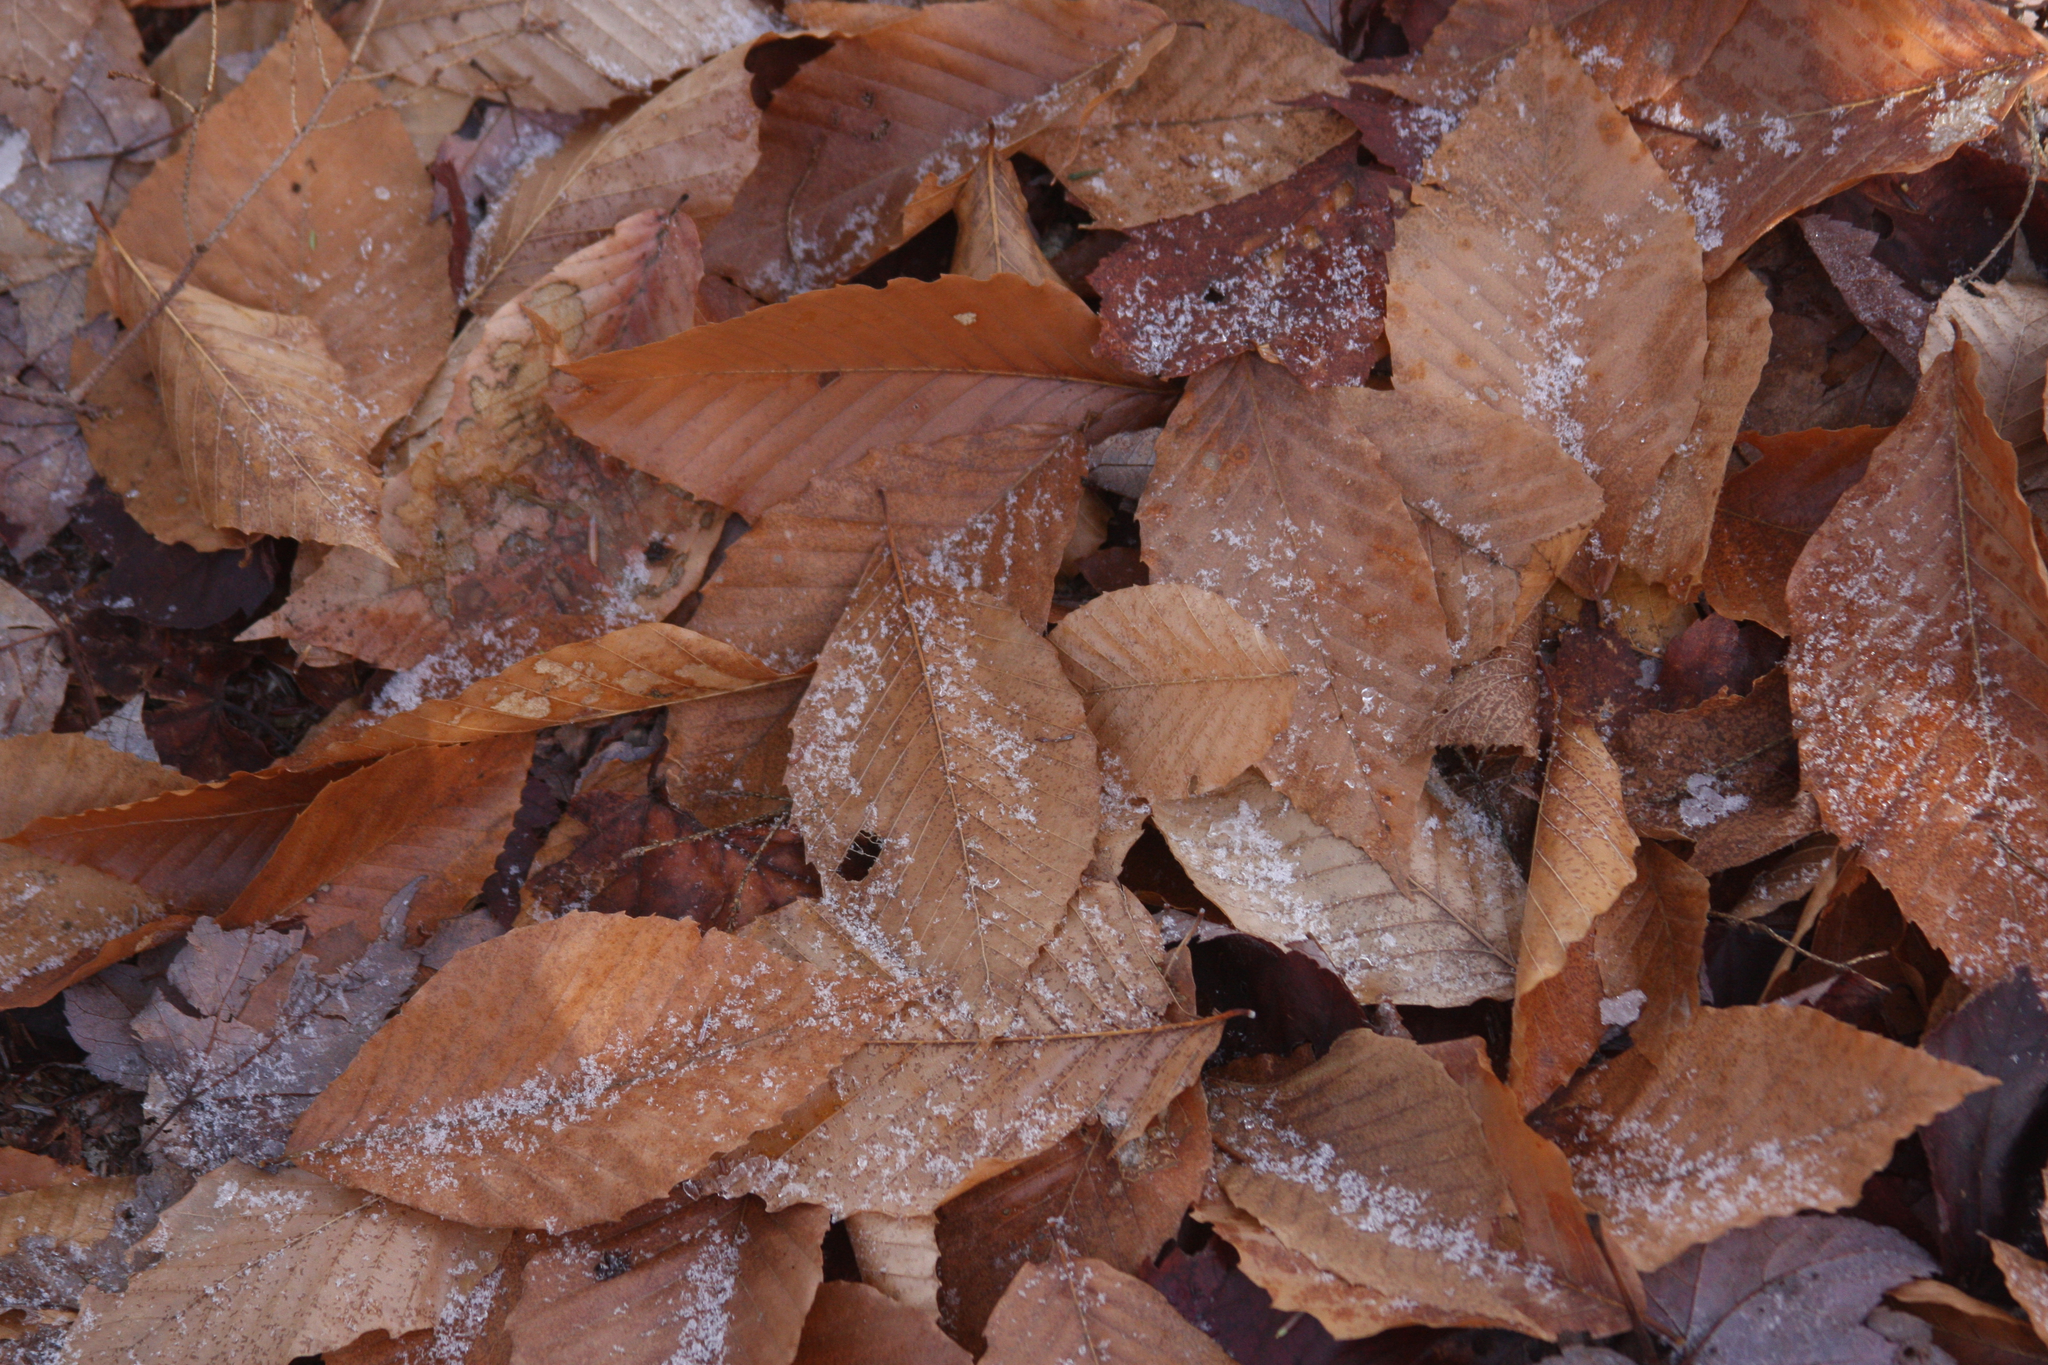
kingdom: Plantae
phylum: Tracheophyta
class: Magnoliopsida
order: Fagales
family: Fagaceae
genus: Fagus
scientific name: Fagus grandifolia
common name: American beech
